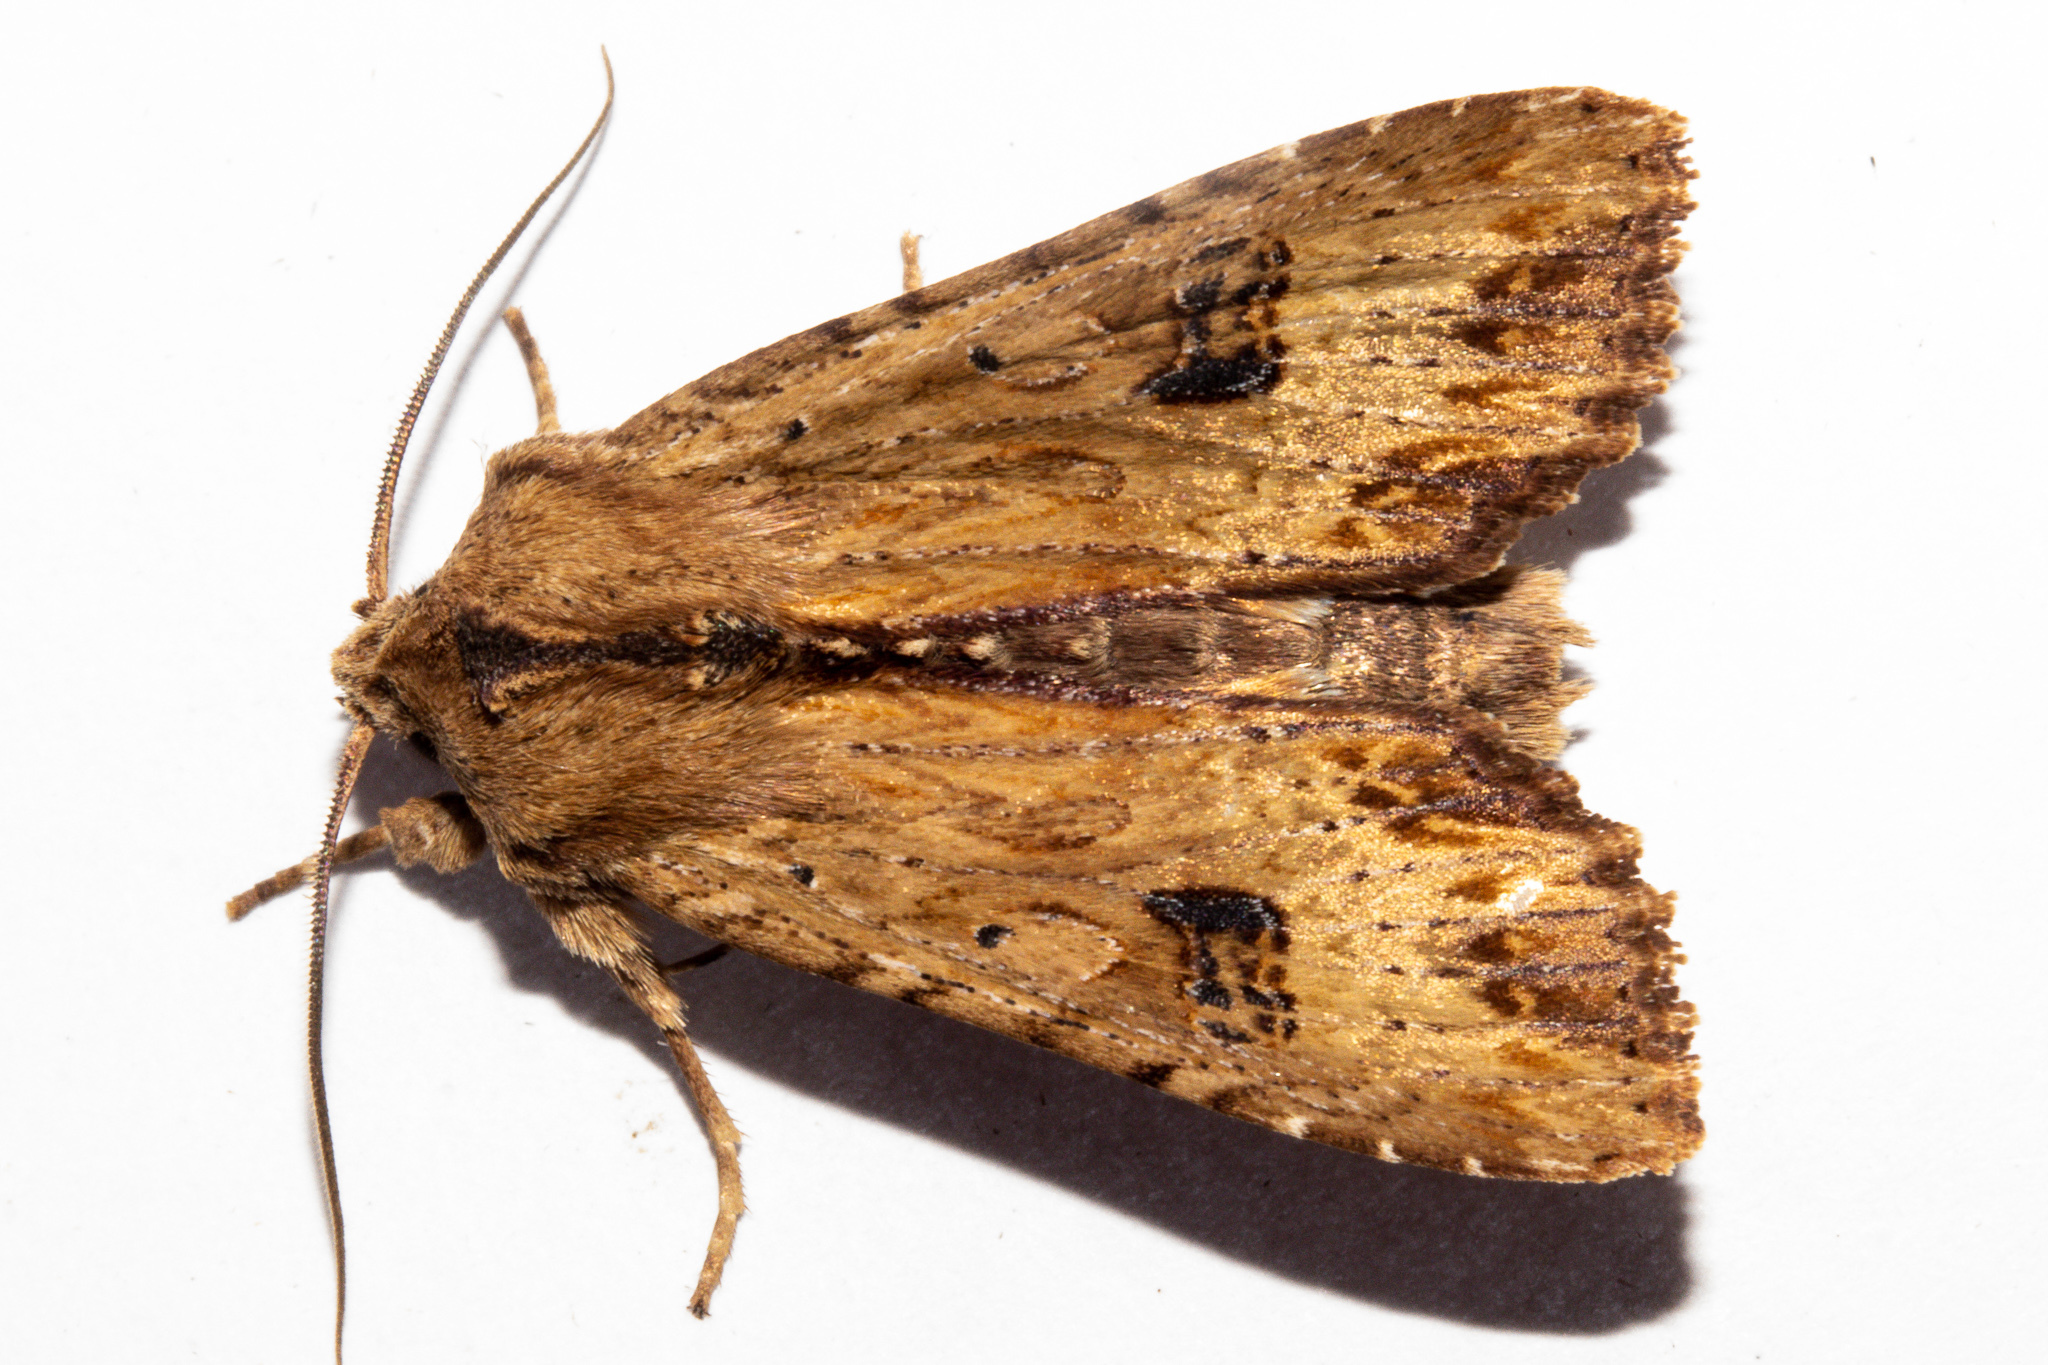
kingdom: Animalia
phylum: Arthropoda
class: Insecta
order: Lepidoptera
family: Noctuidae
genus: Ichneutica
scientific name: Ichneutica
